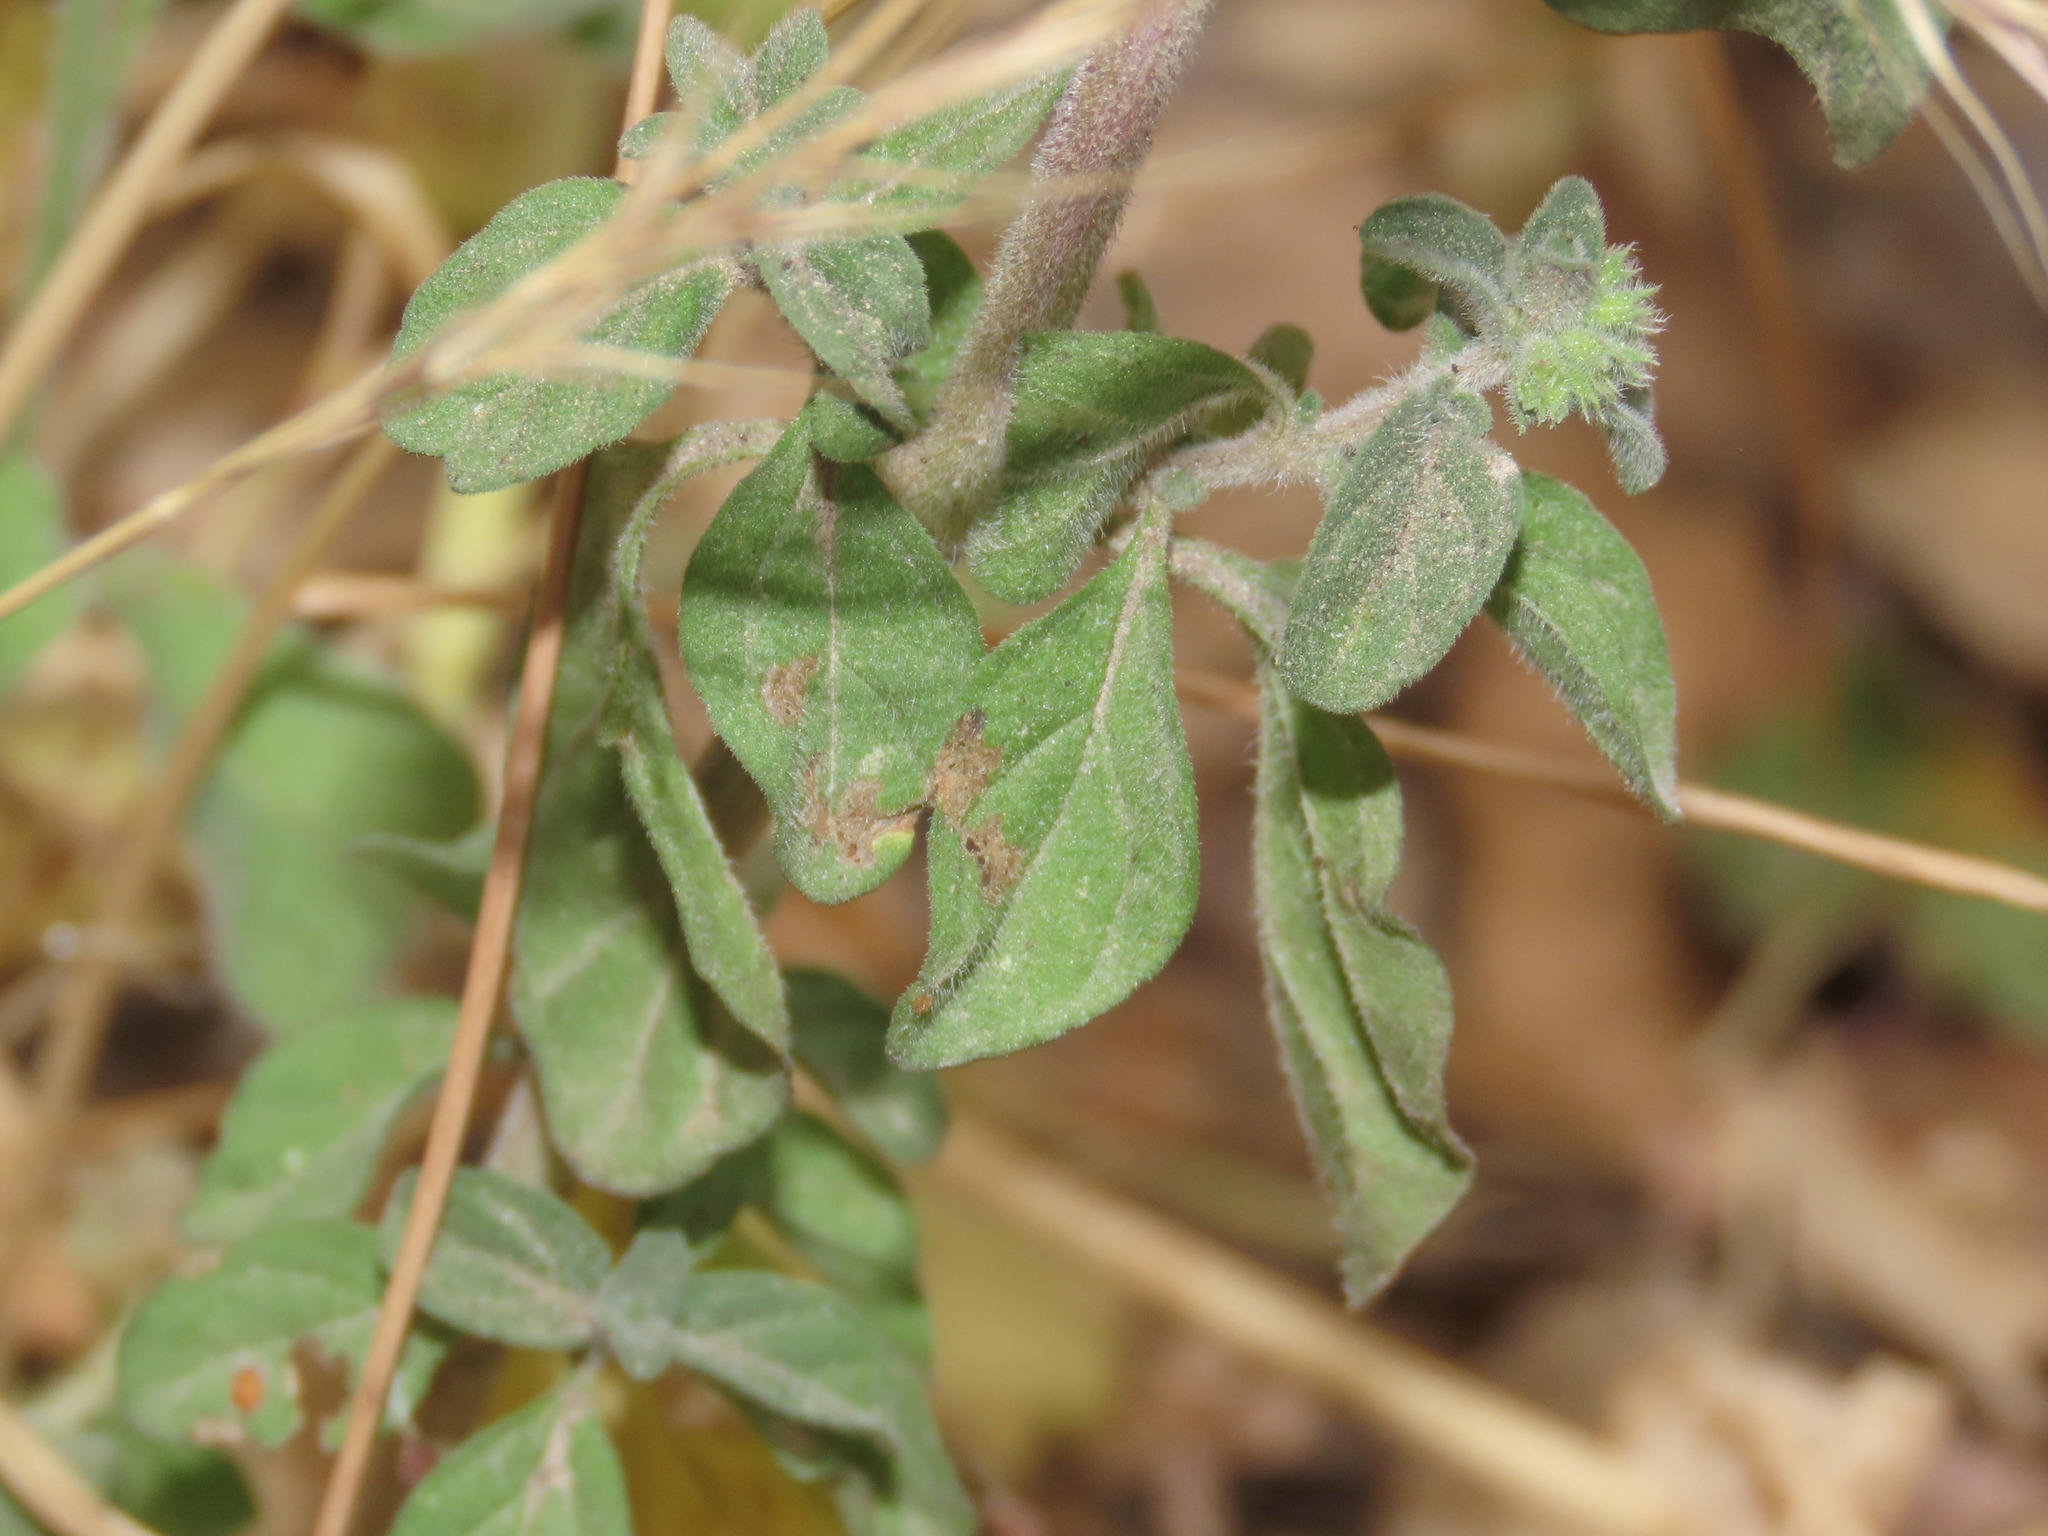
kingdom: Plantae
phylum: Tracheophyta
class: Magnoliopsida
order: Lamiales
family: Lamiaceae
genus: Mentha
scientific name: Mentha pulegium
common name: Pennyroyal
